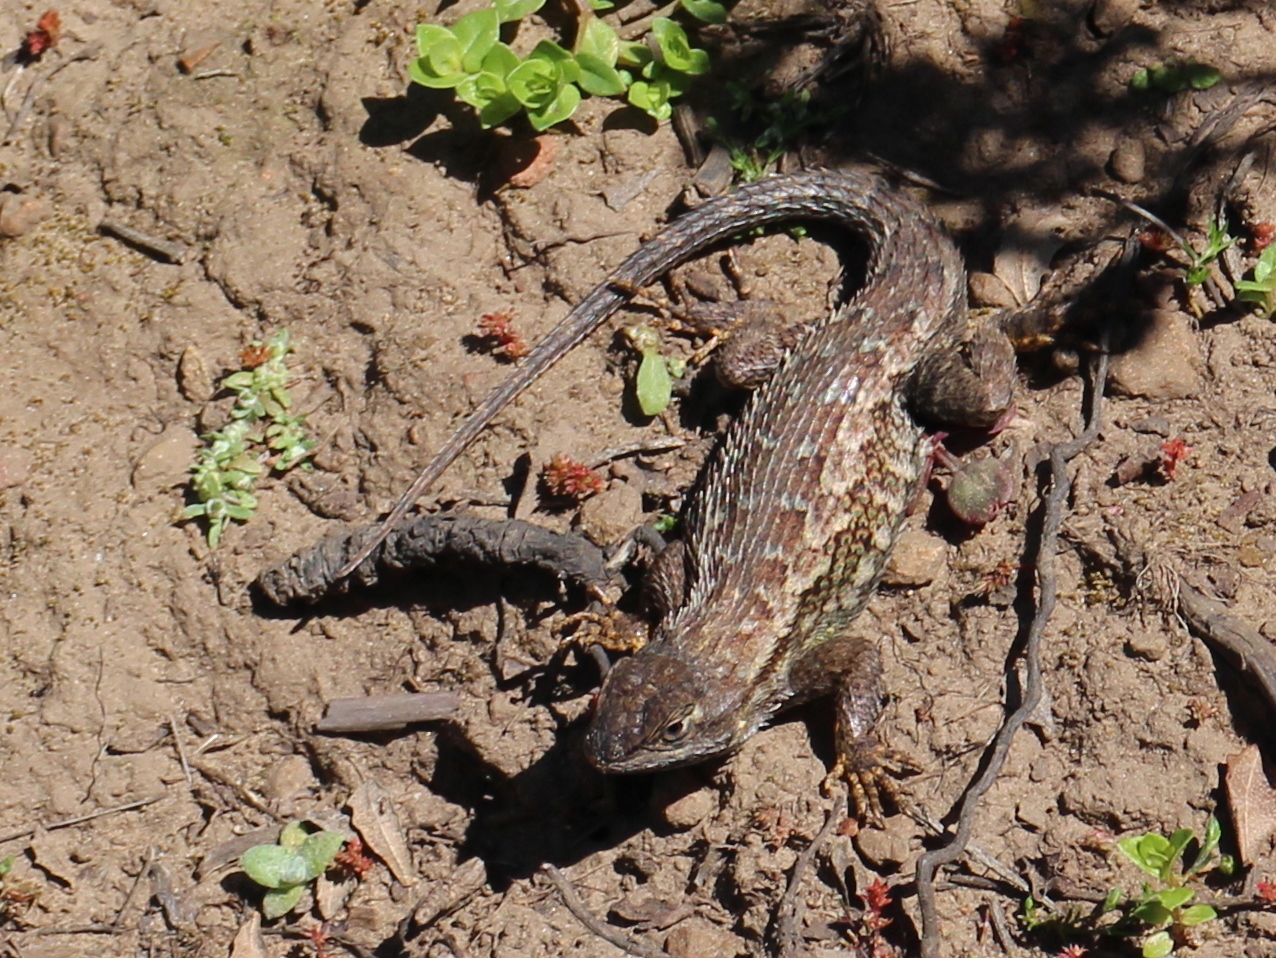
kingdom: Animalia
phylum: Chordata
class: Squamata
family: Phrynosomatidae
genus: Sceloporus
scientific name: Sceloporus occidentalis
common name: Western fence lizard
